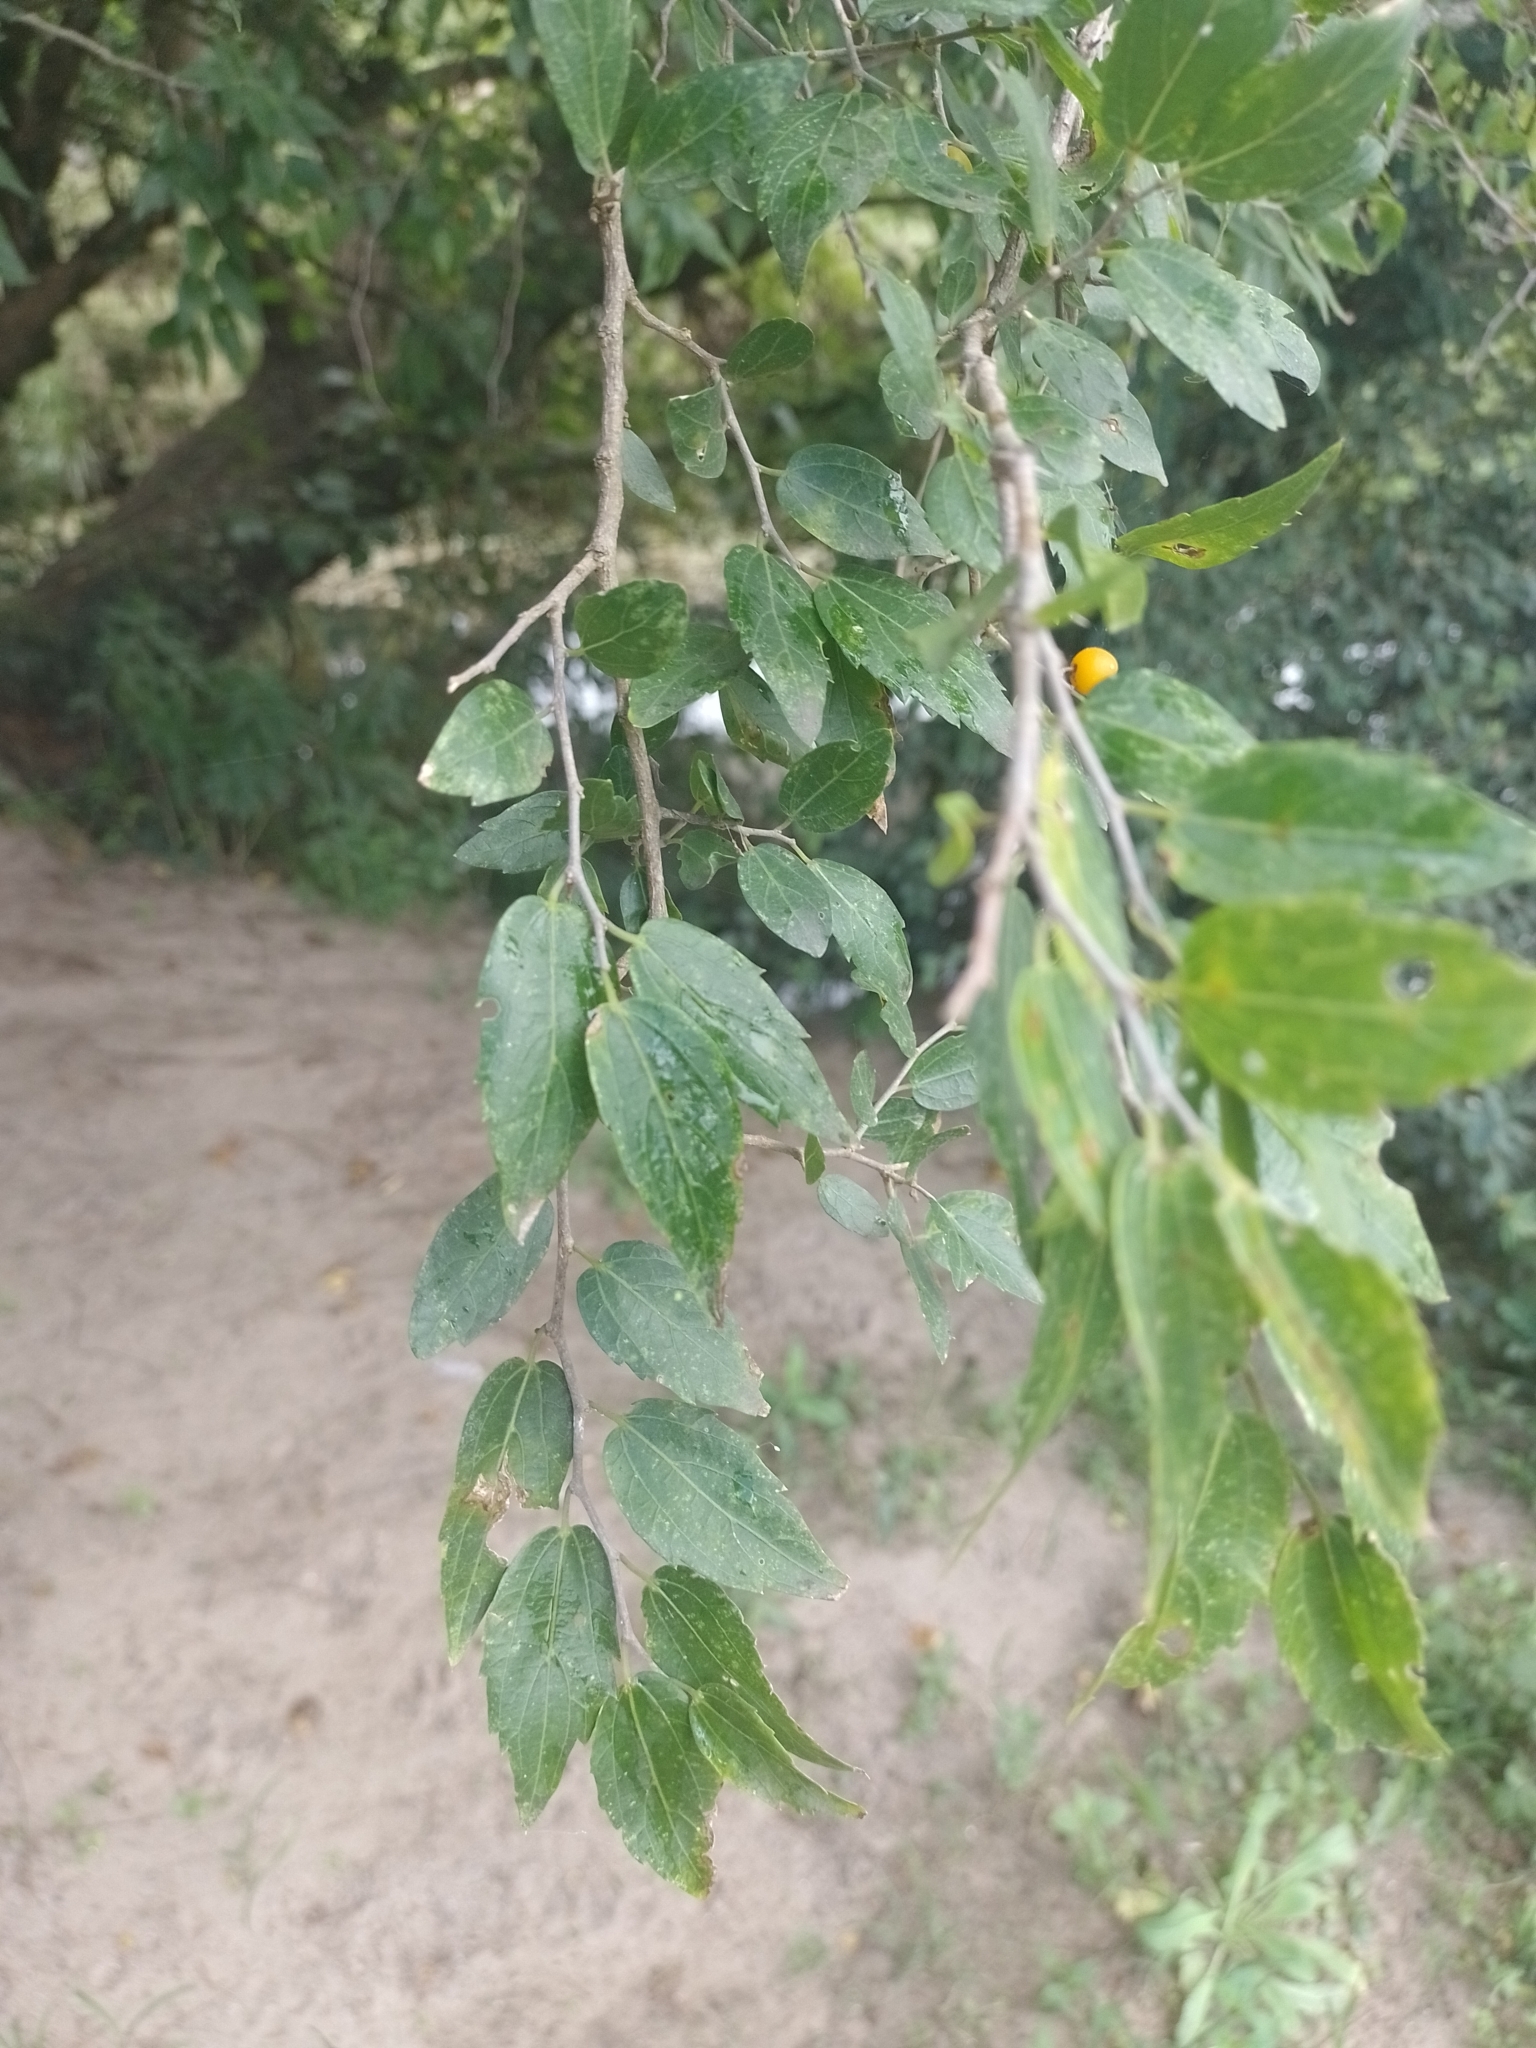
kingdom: Plantae
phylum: Tracheophyta
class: Magnoliopsida
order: Rosales
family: Cannabaceae
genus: Celtis
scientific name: Celtis tala
